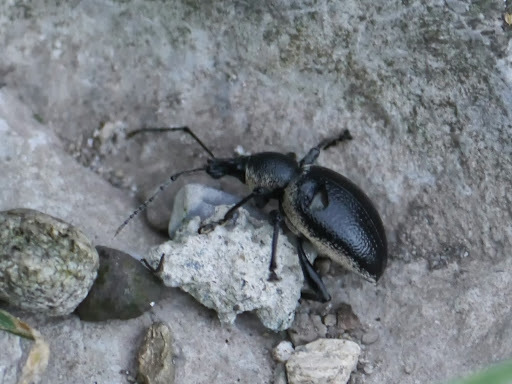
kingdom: Animalia
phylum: Arthropoda
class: Insecta
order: Coleoptera
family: Curculionidae
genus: Otiorhynchus
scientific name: Otiorhynchus vehemens
